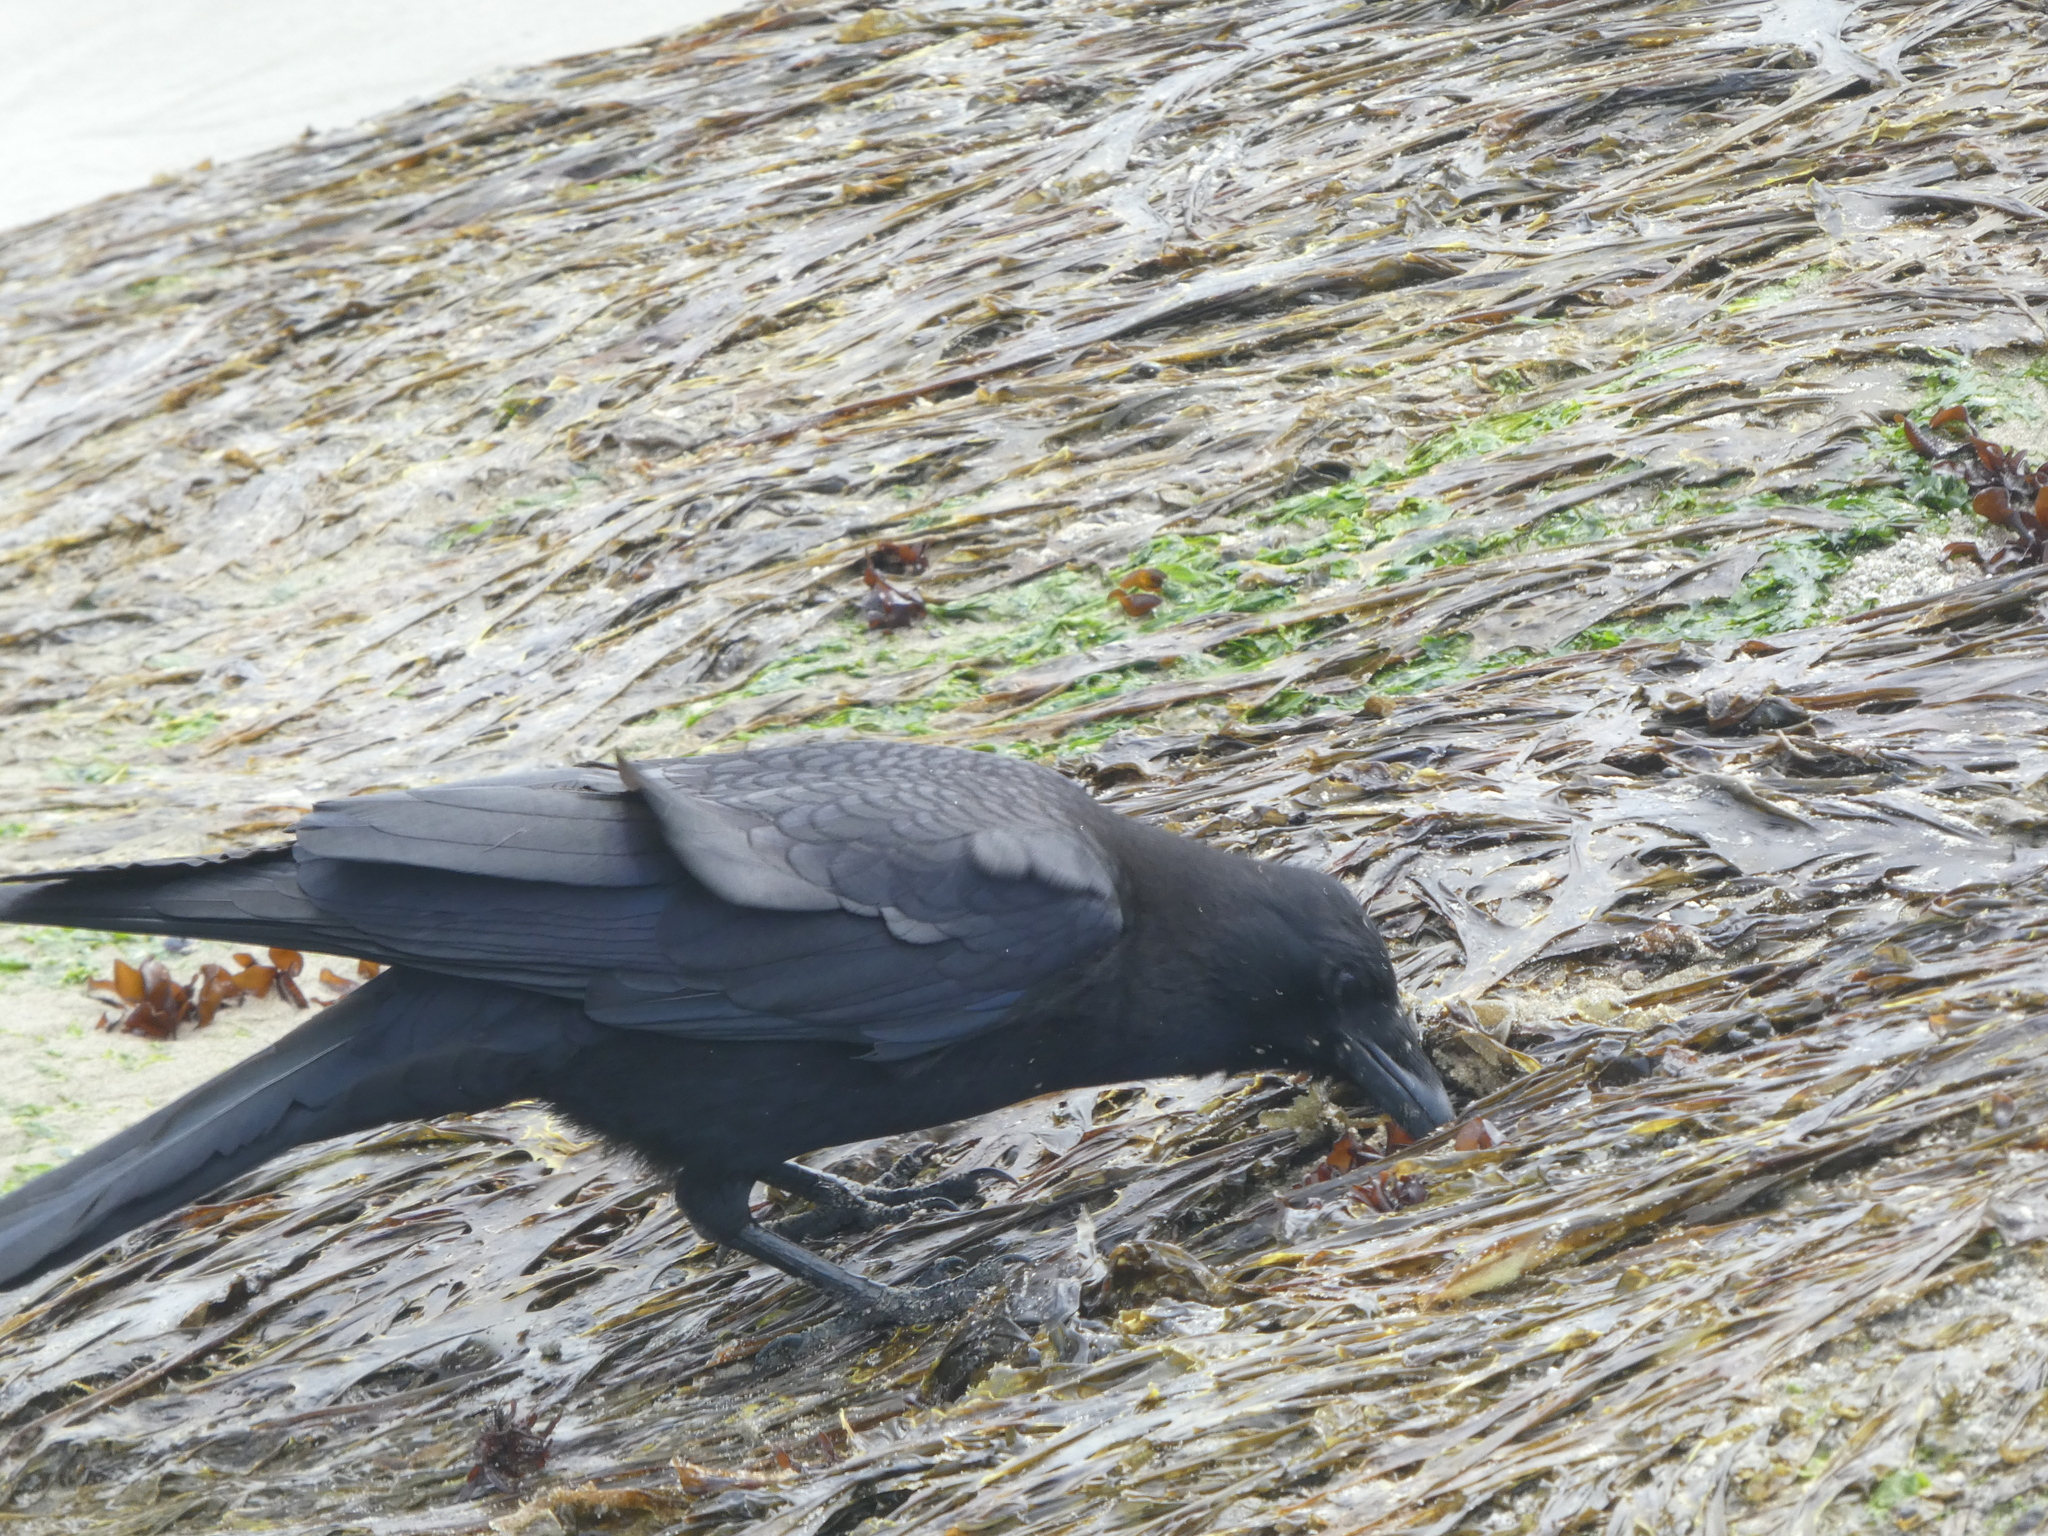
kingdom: Animalia
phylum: Chordata
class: Aves
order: Passeriformes
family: Corvidae
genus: Corvus
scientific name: Corvus brachyrhynchos
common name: American crow
